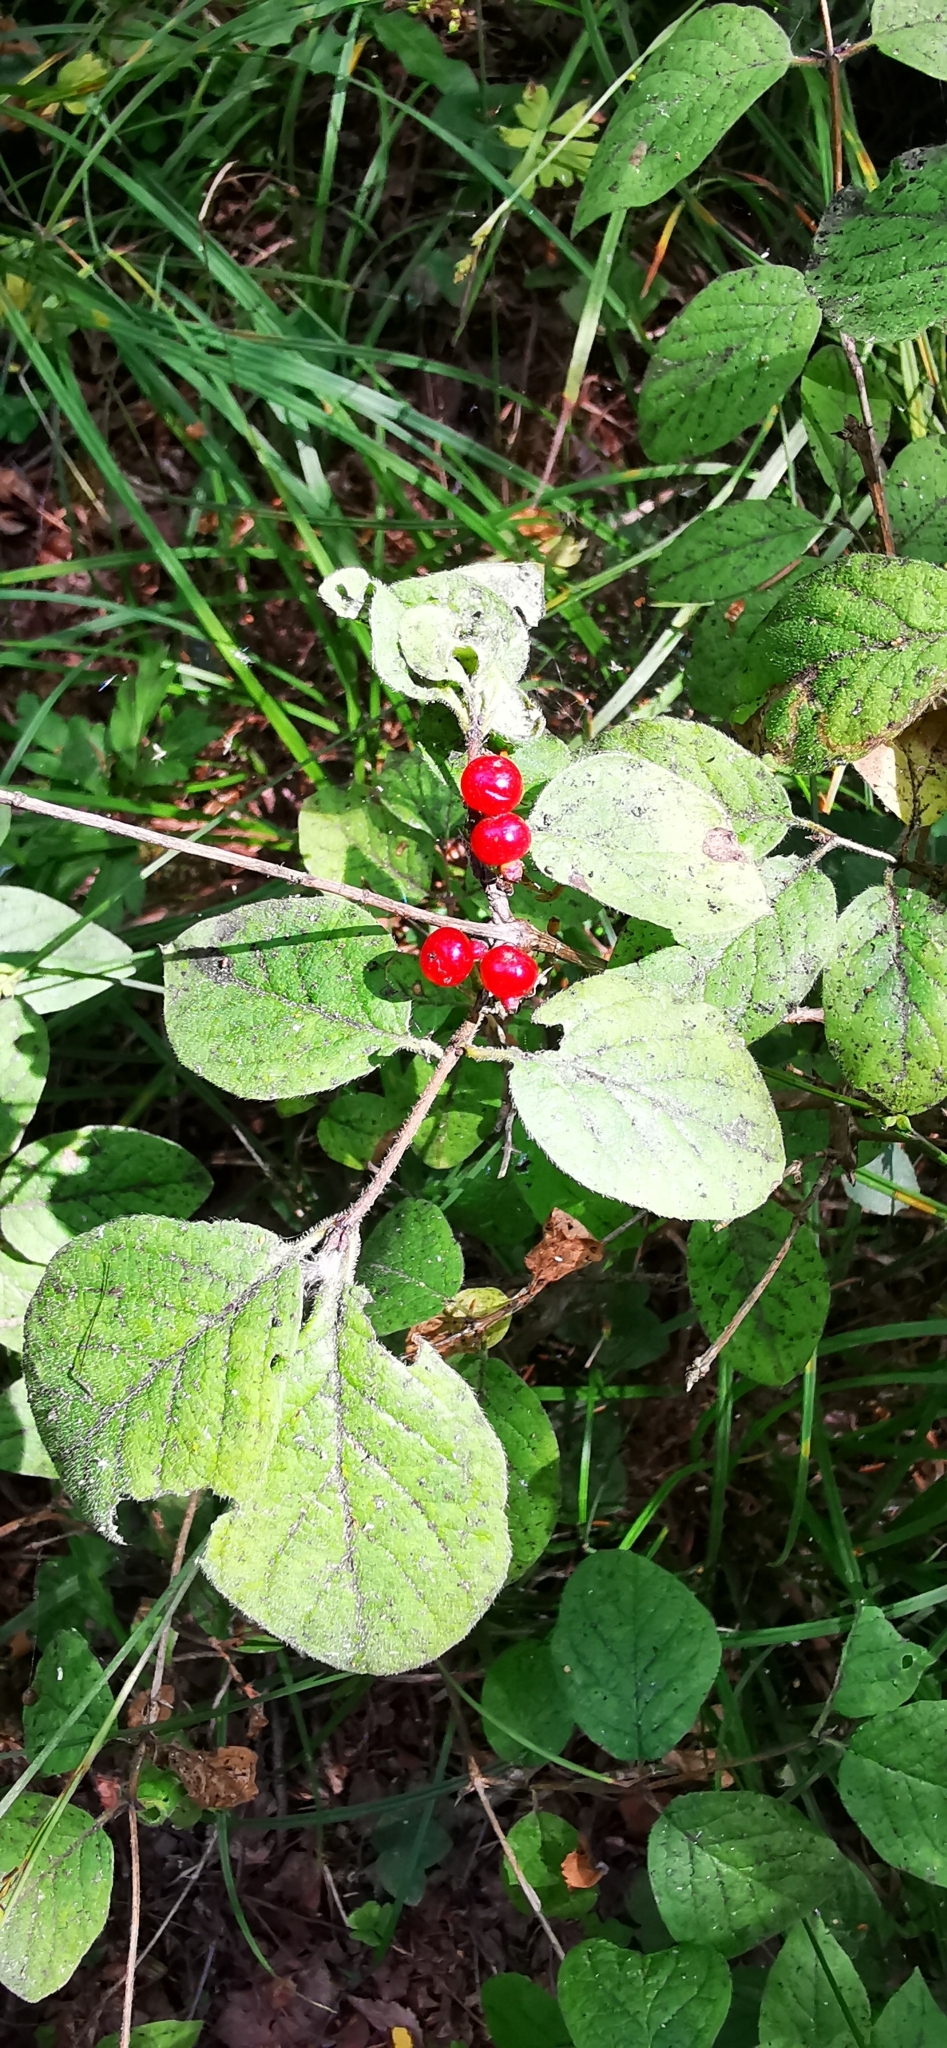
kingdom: Plantae
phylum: Tracheophyta
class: Magnoliopsida
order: Dipsacales
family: Caprifoliaceae
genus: Lonicera
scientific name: Lonicera xylosteum
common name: Fly honeysuckle
